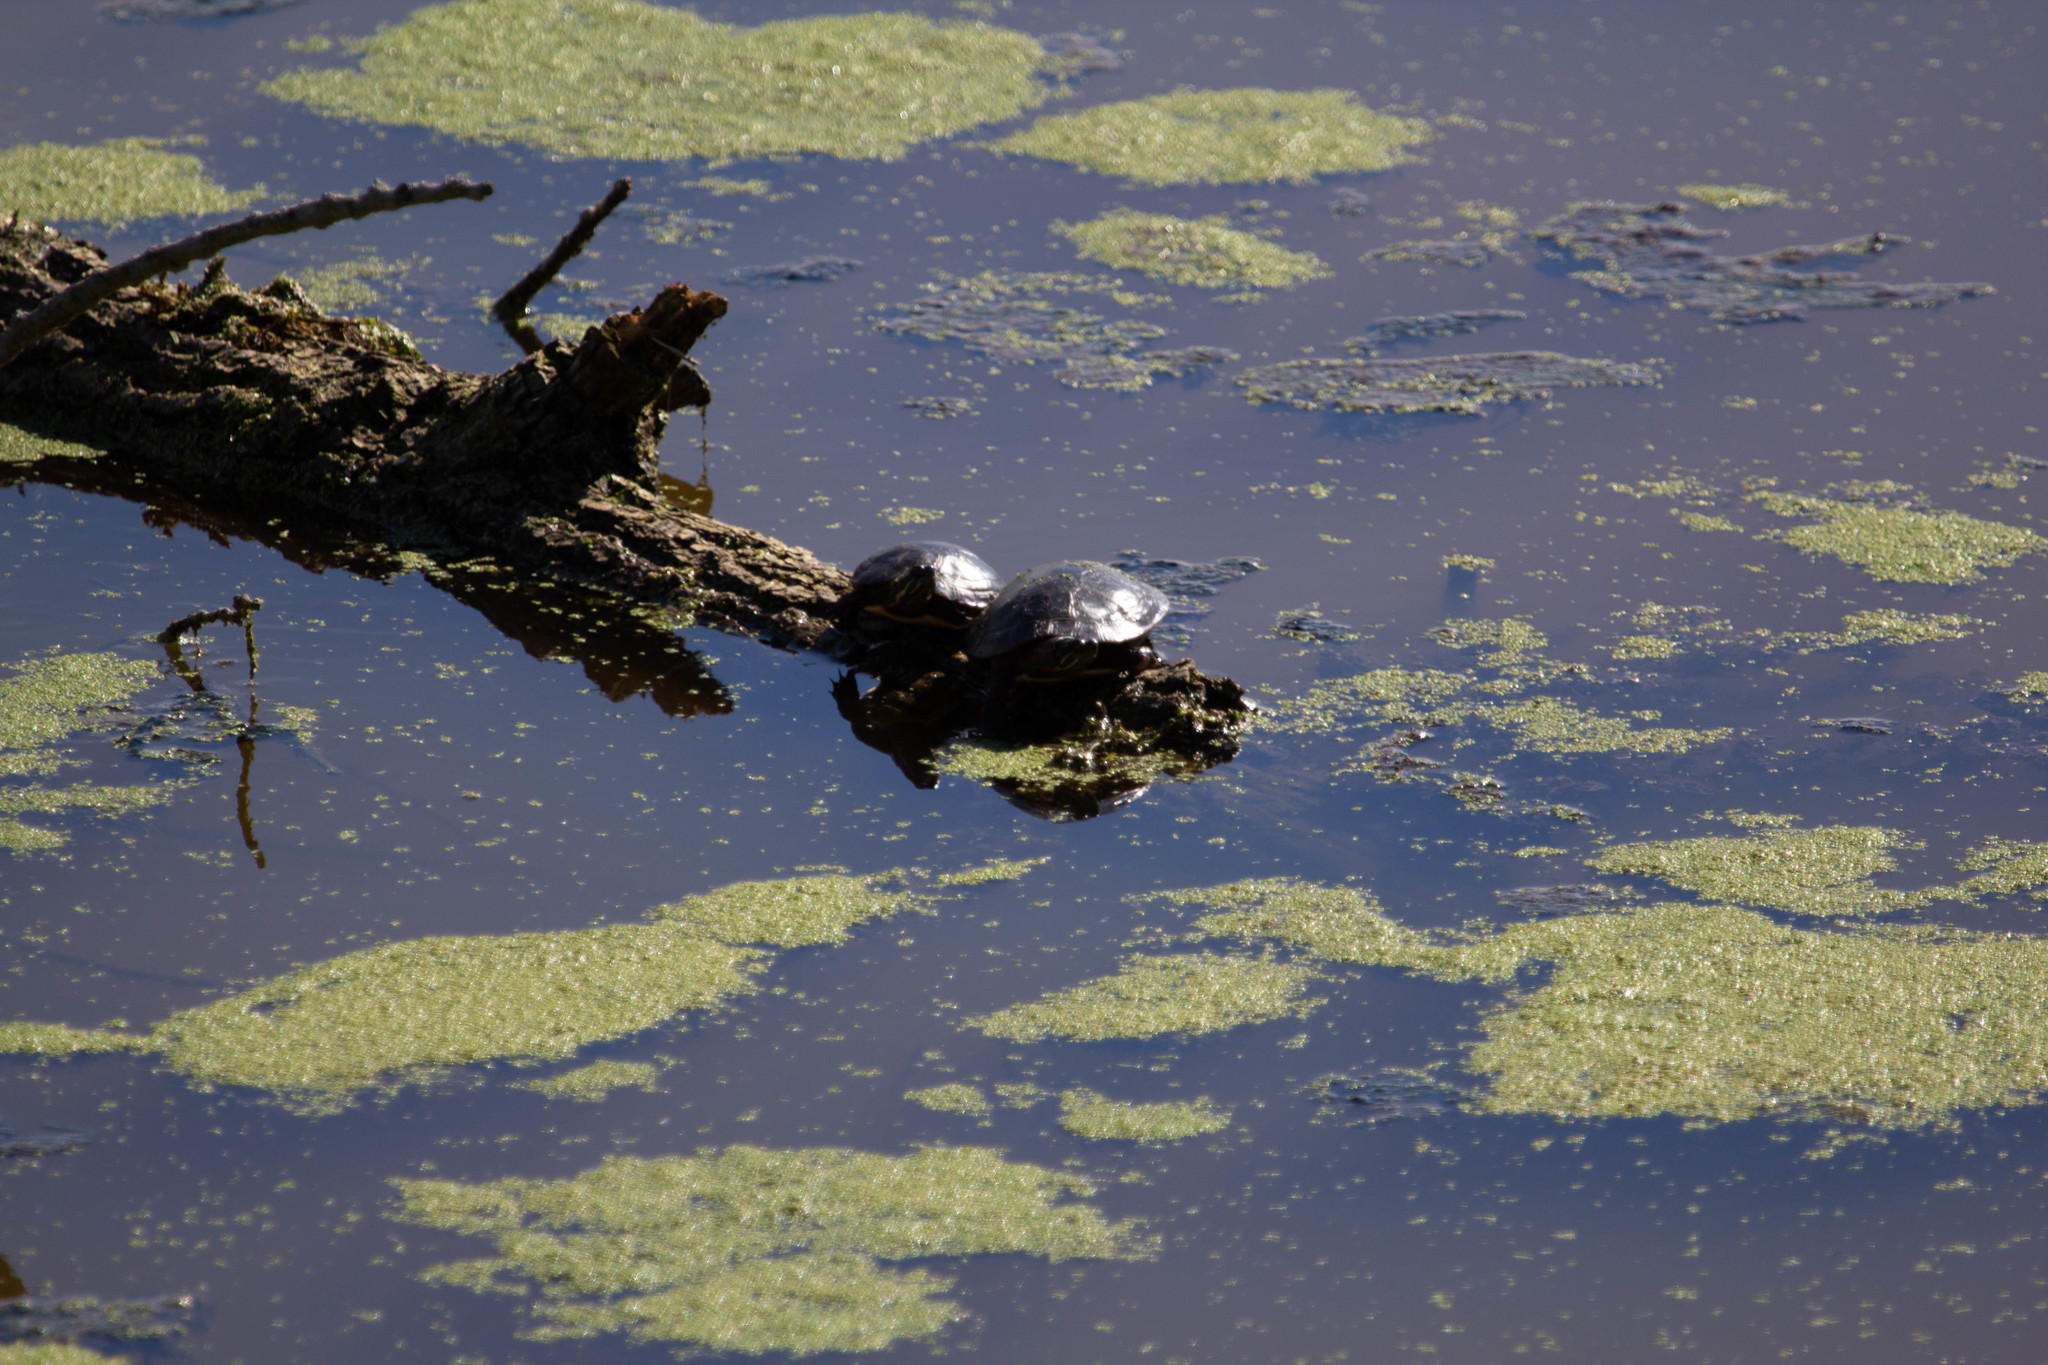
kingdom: Animalia
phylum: Chordata
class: Testudines
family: Emydidae
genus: Chrysemys
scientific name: Chrysemys picta
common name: Painted turtle
